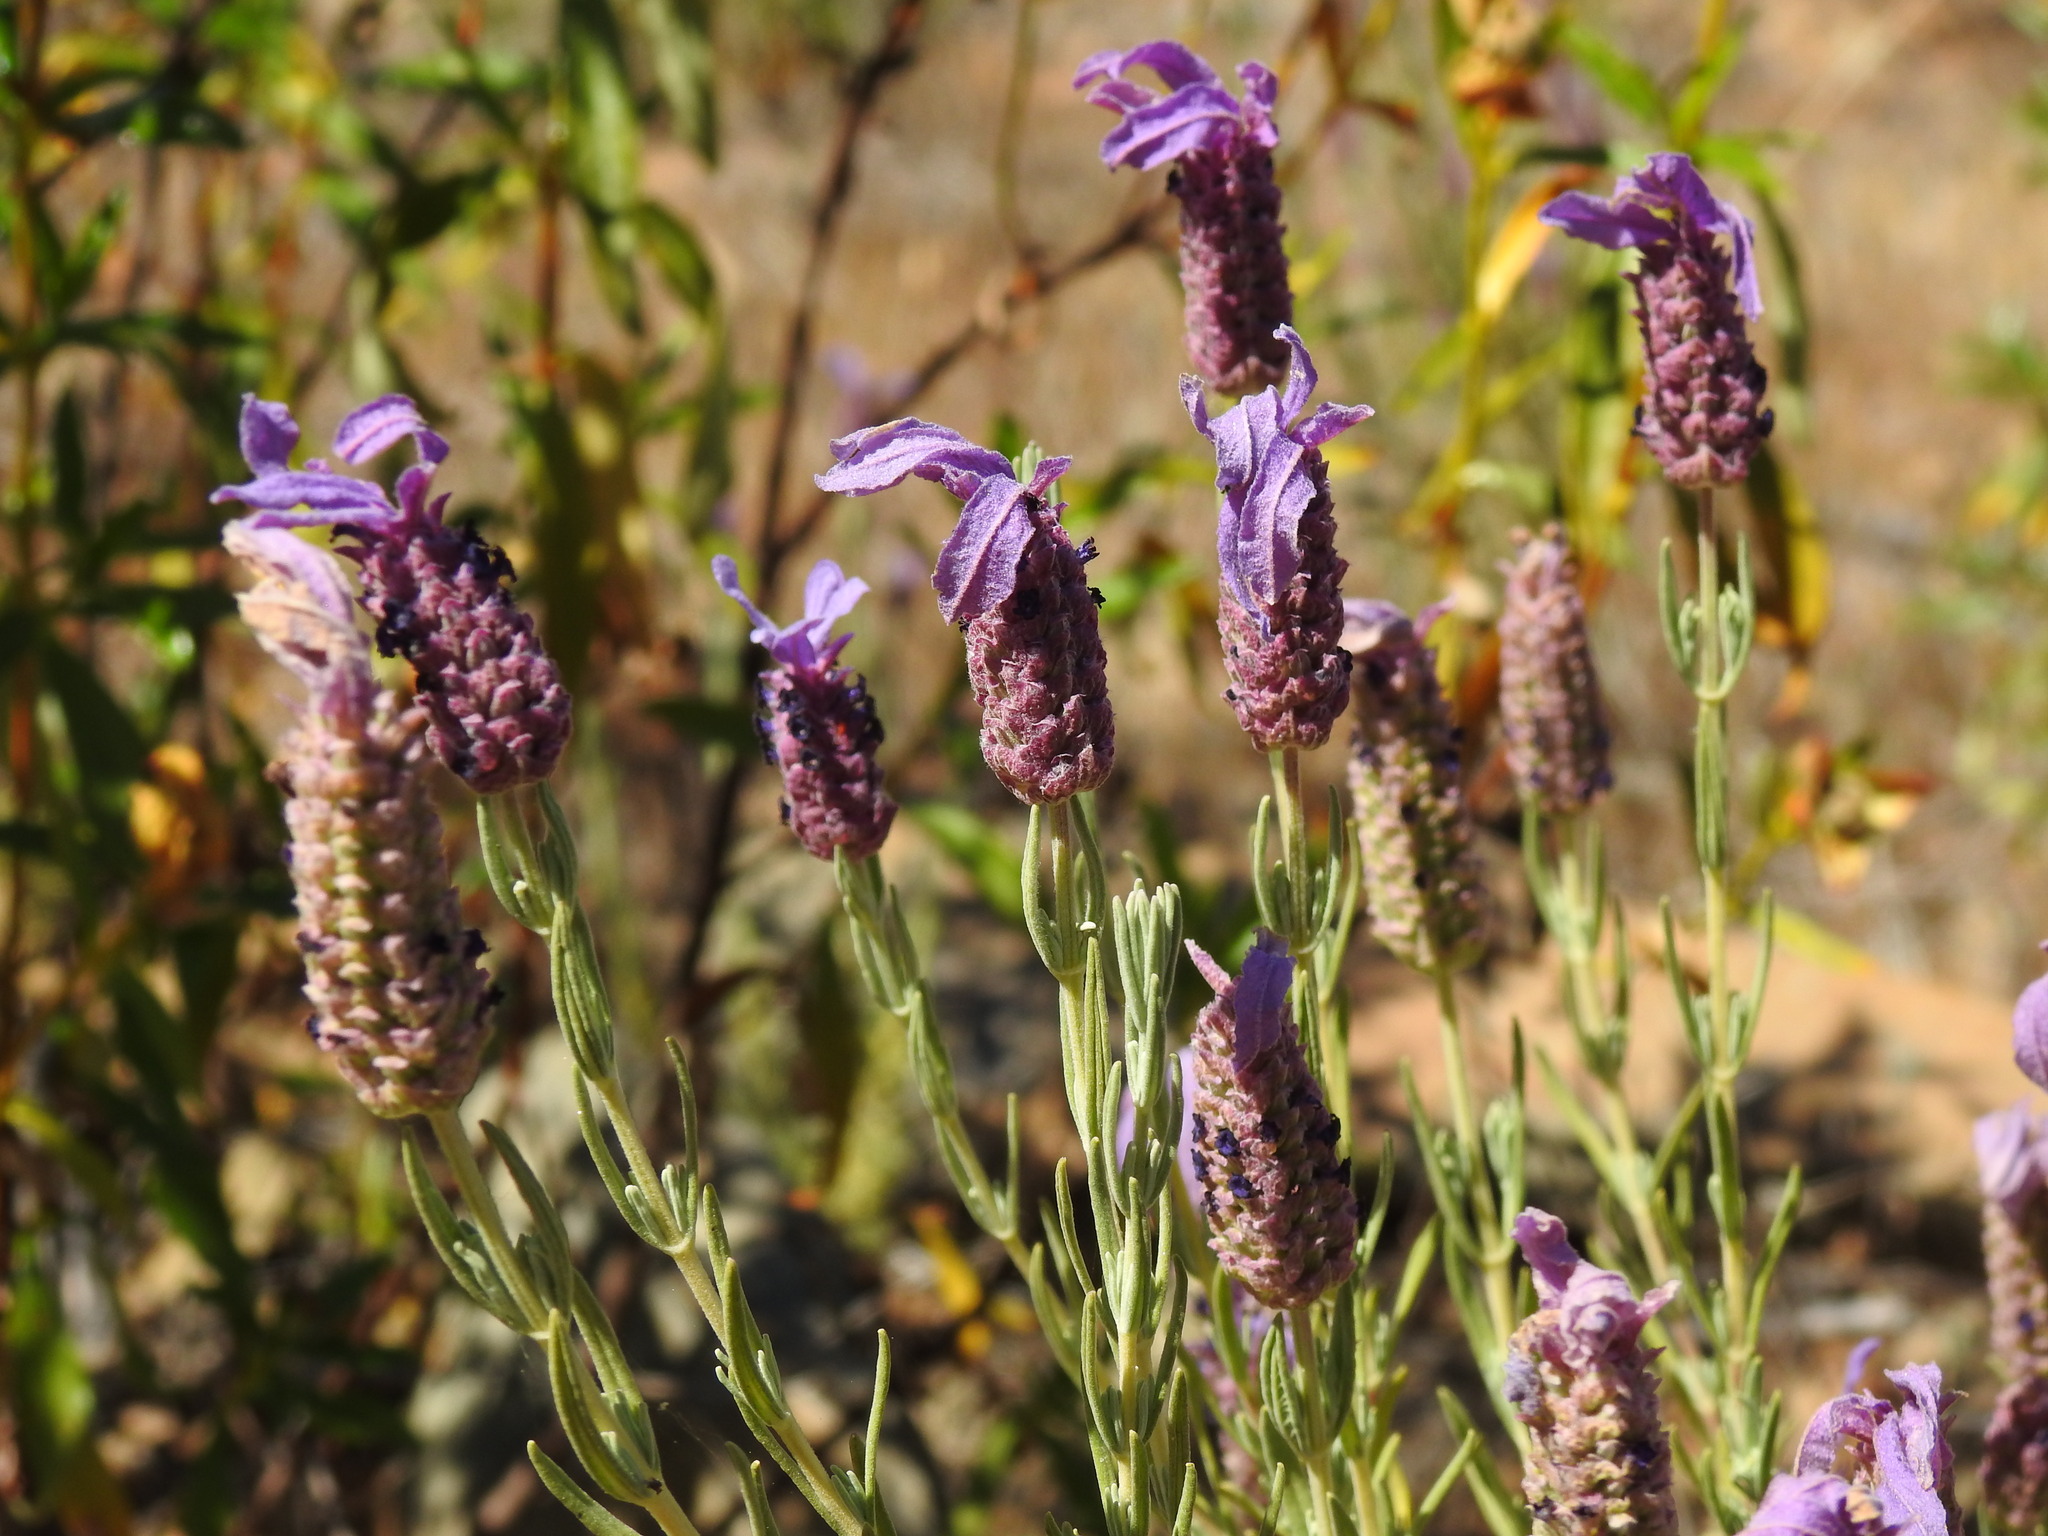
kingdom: Plantae
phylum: Tracheophyta
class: Magnoliopsida
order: Lamiales
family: Lamiaceae
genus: Lavandula
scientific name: Lavandula stoechas
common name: French lavender
